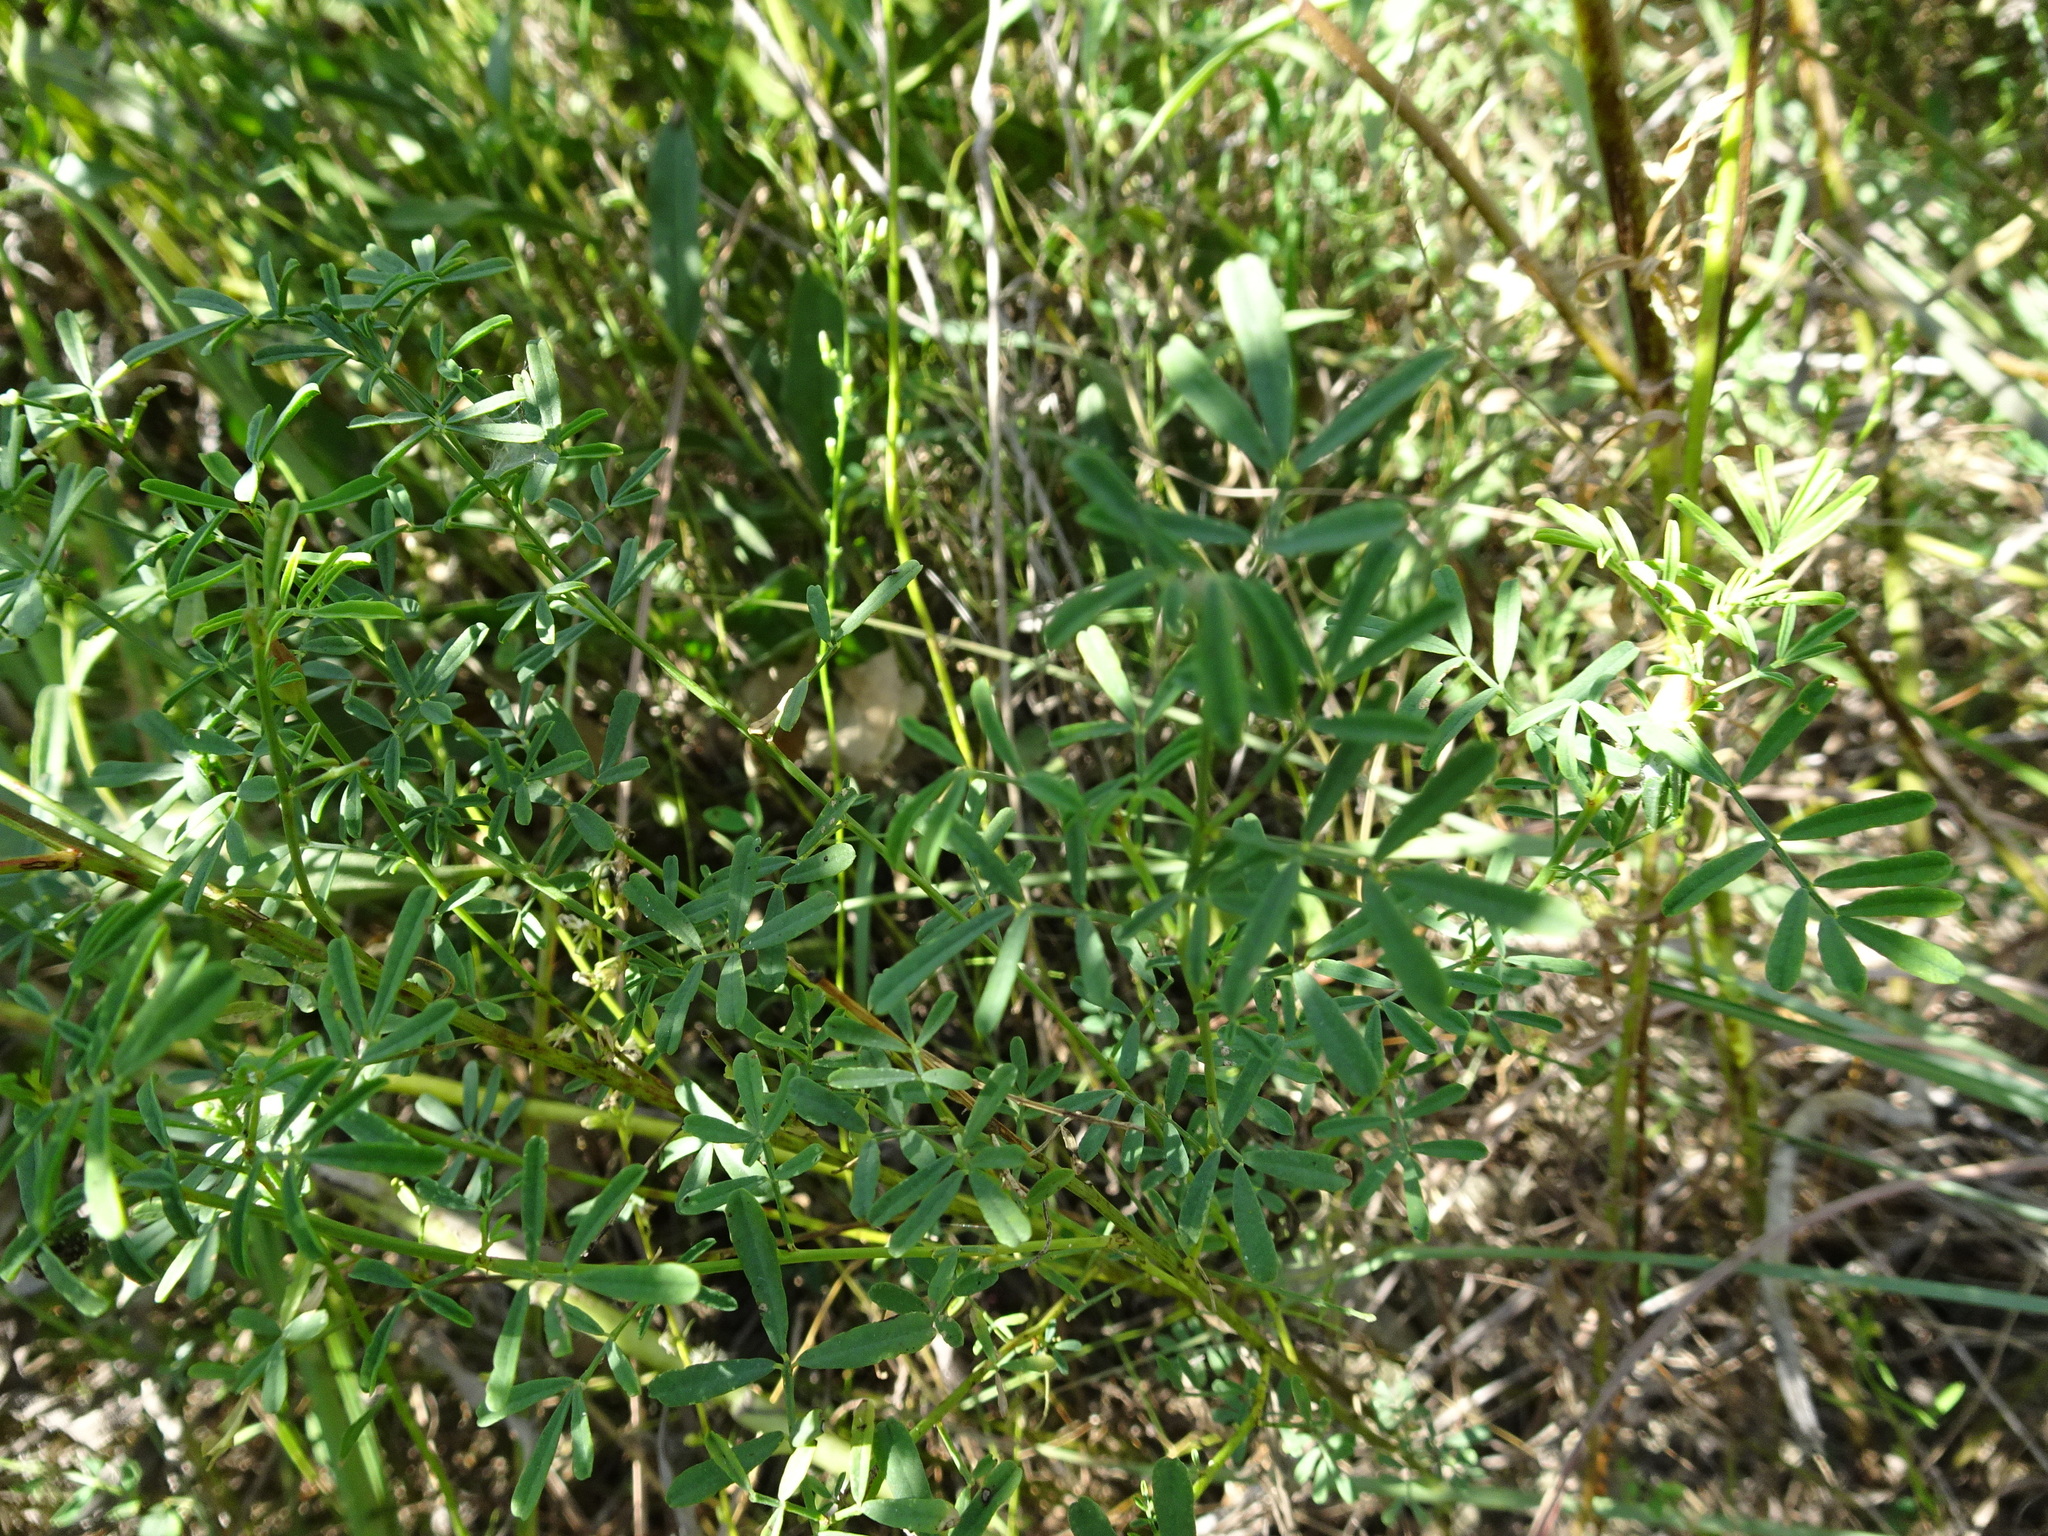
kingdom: Plantae
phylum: Tracheophyta
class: Magnoliopsida
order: Fabales
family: Fabaceae
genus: Dalea
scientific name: Dalea multiflora
